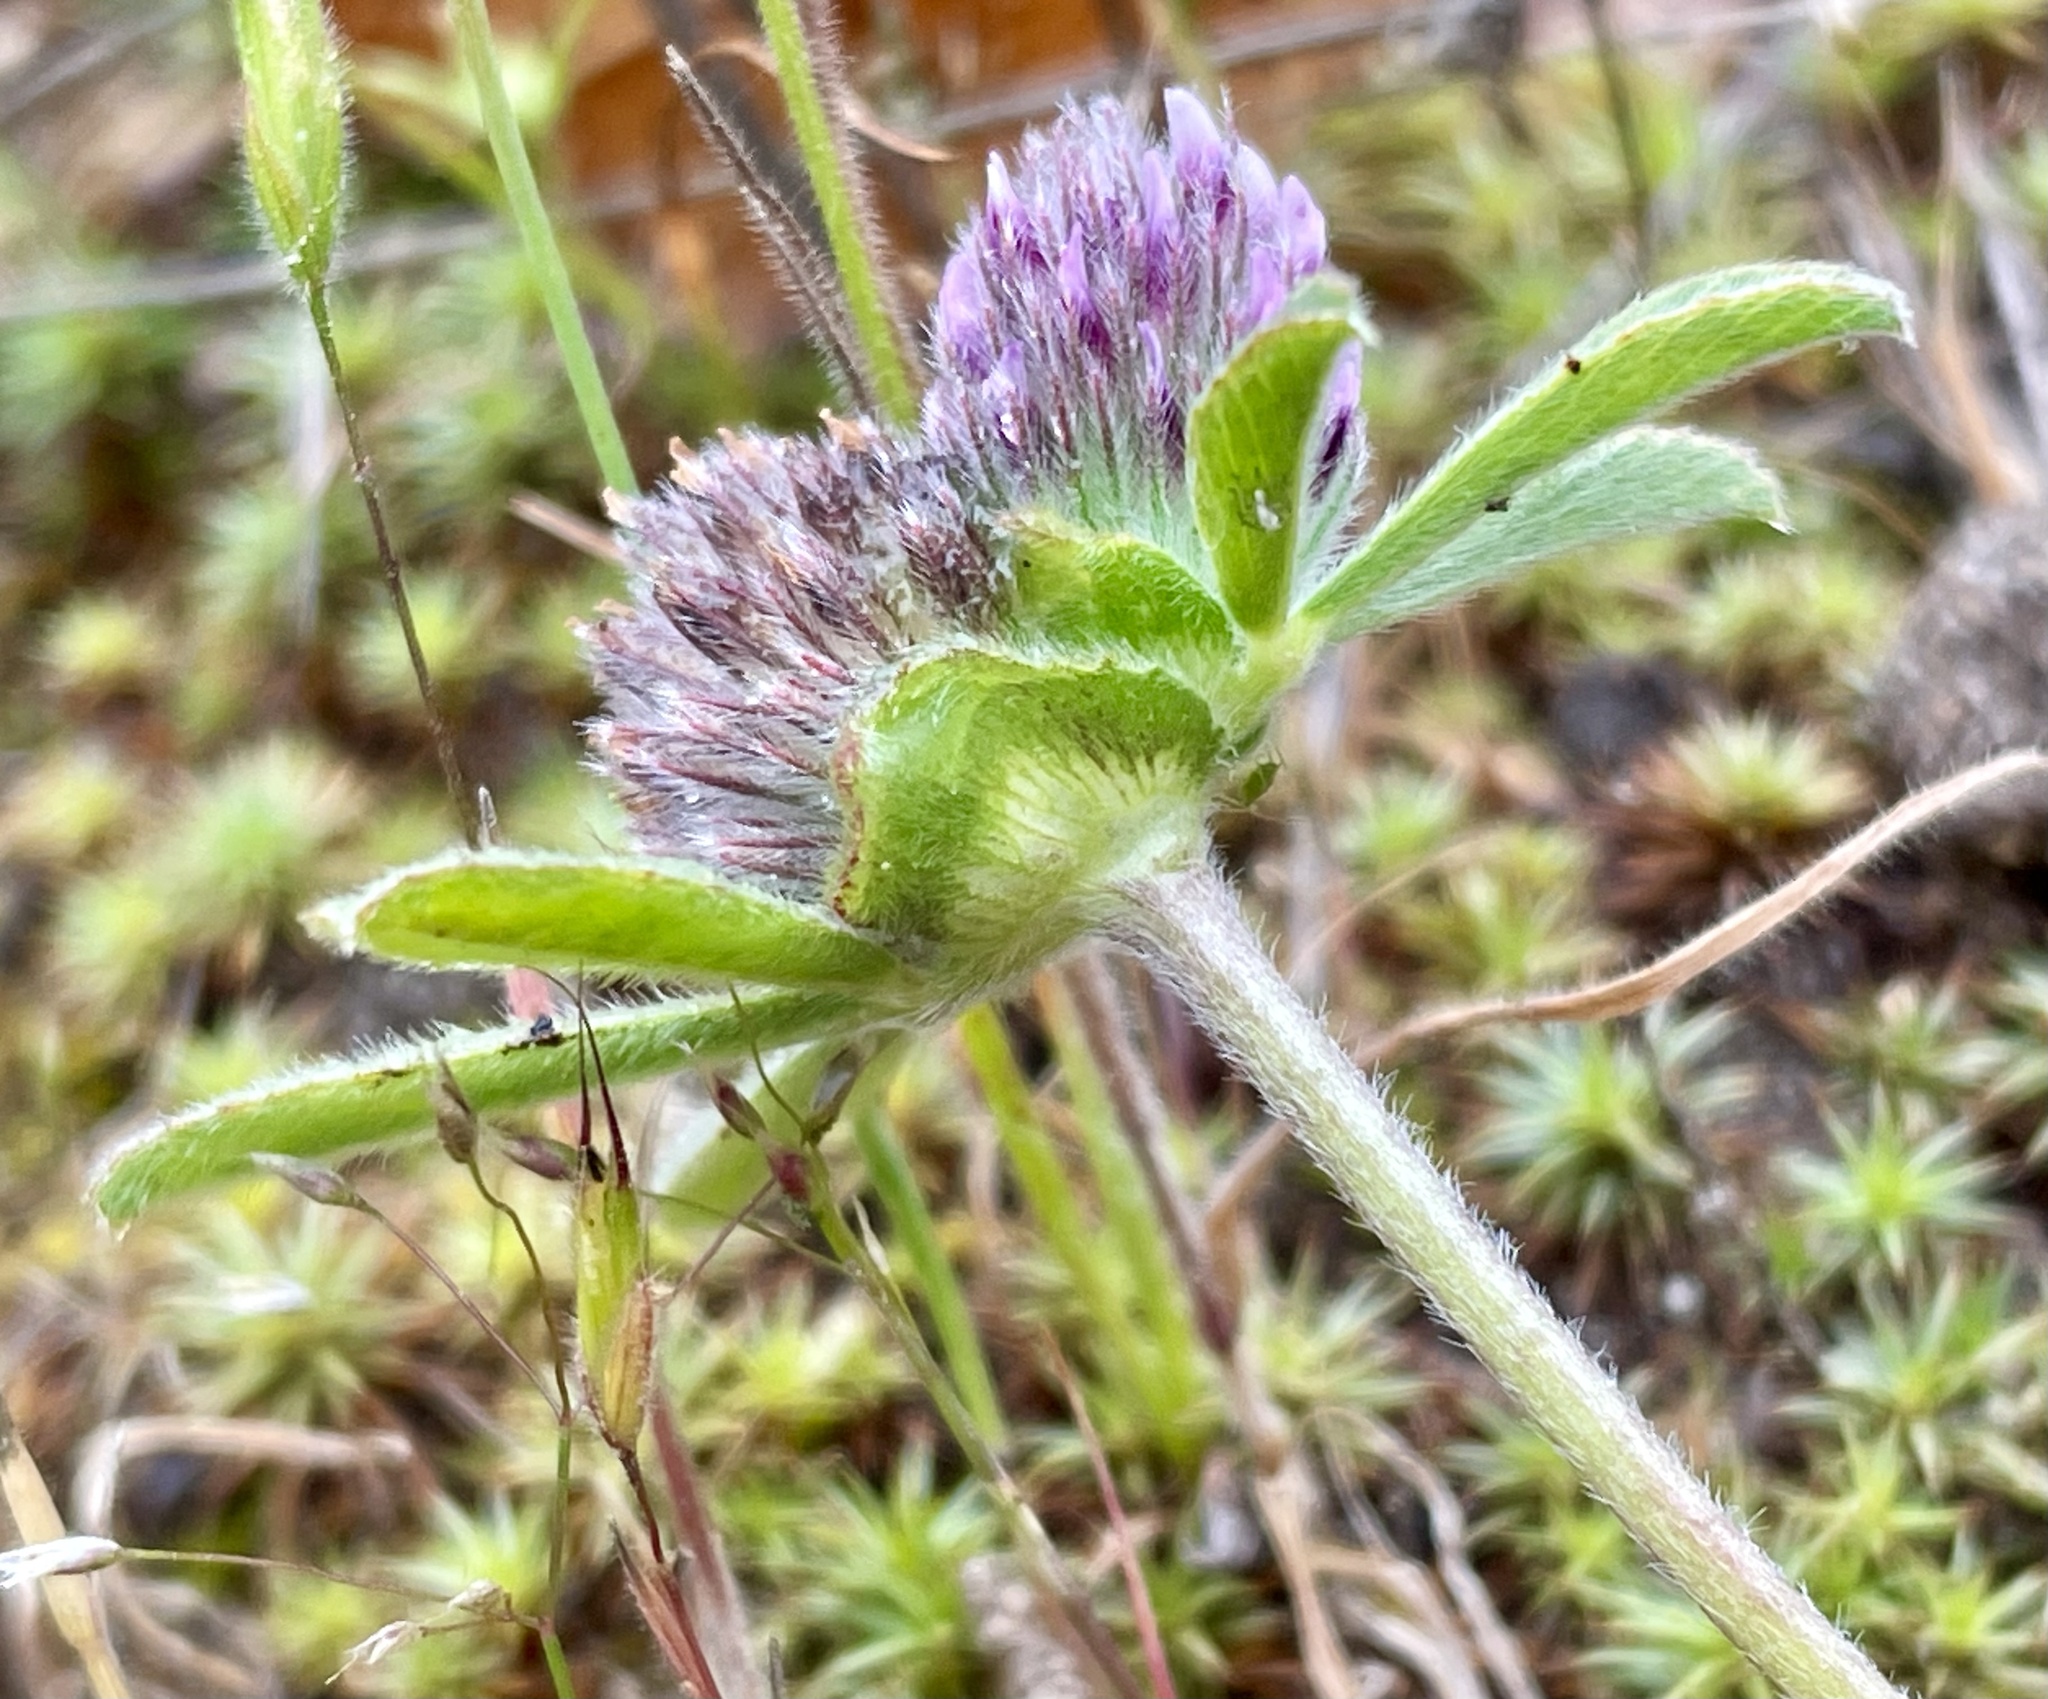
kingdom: Plantae
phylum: Tracheophyta
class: Magnoliopsida
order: Fabales
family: Fabaceae
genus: Trifolium
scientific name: Trifolium macraei
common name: Macrae's clover
